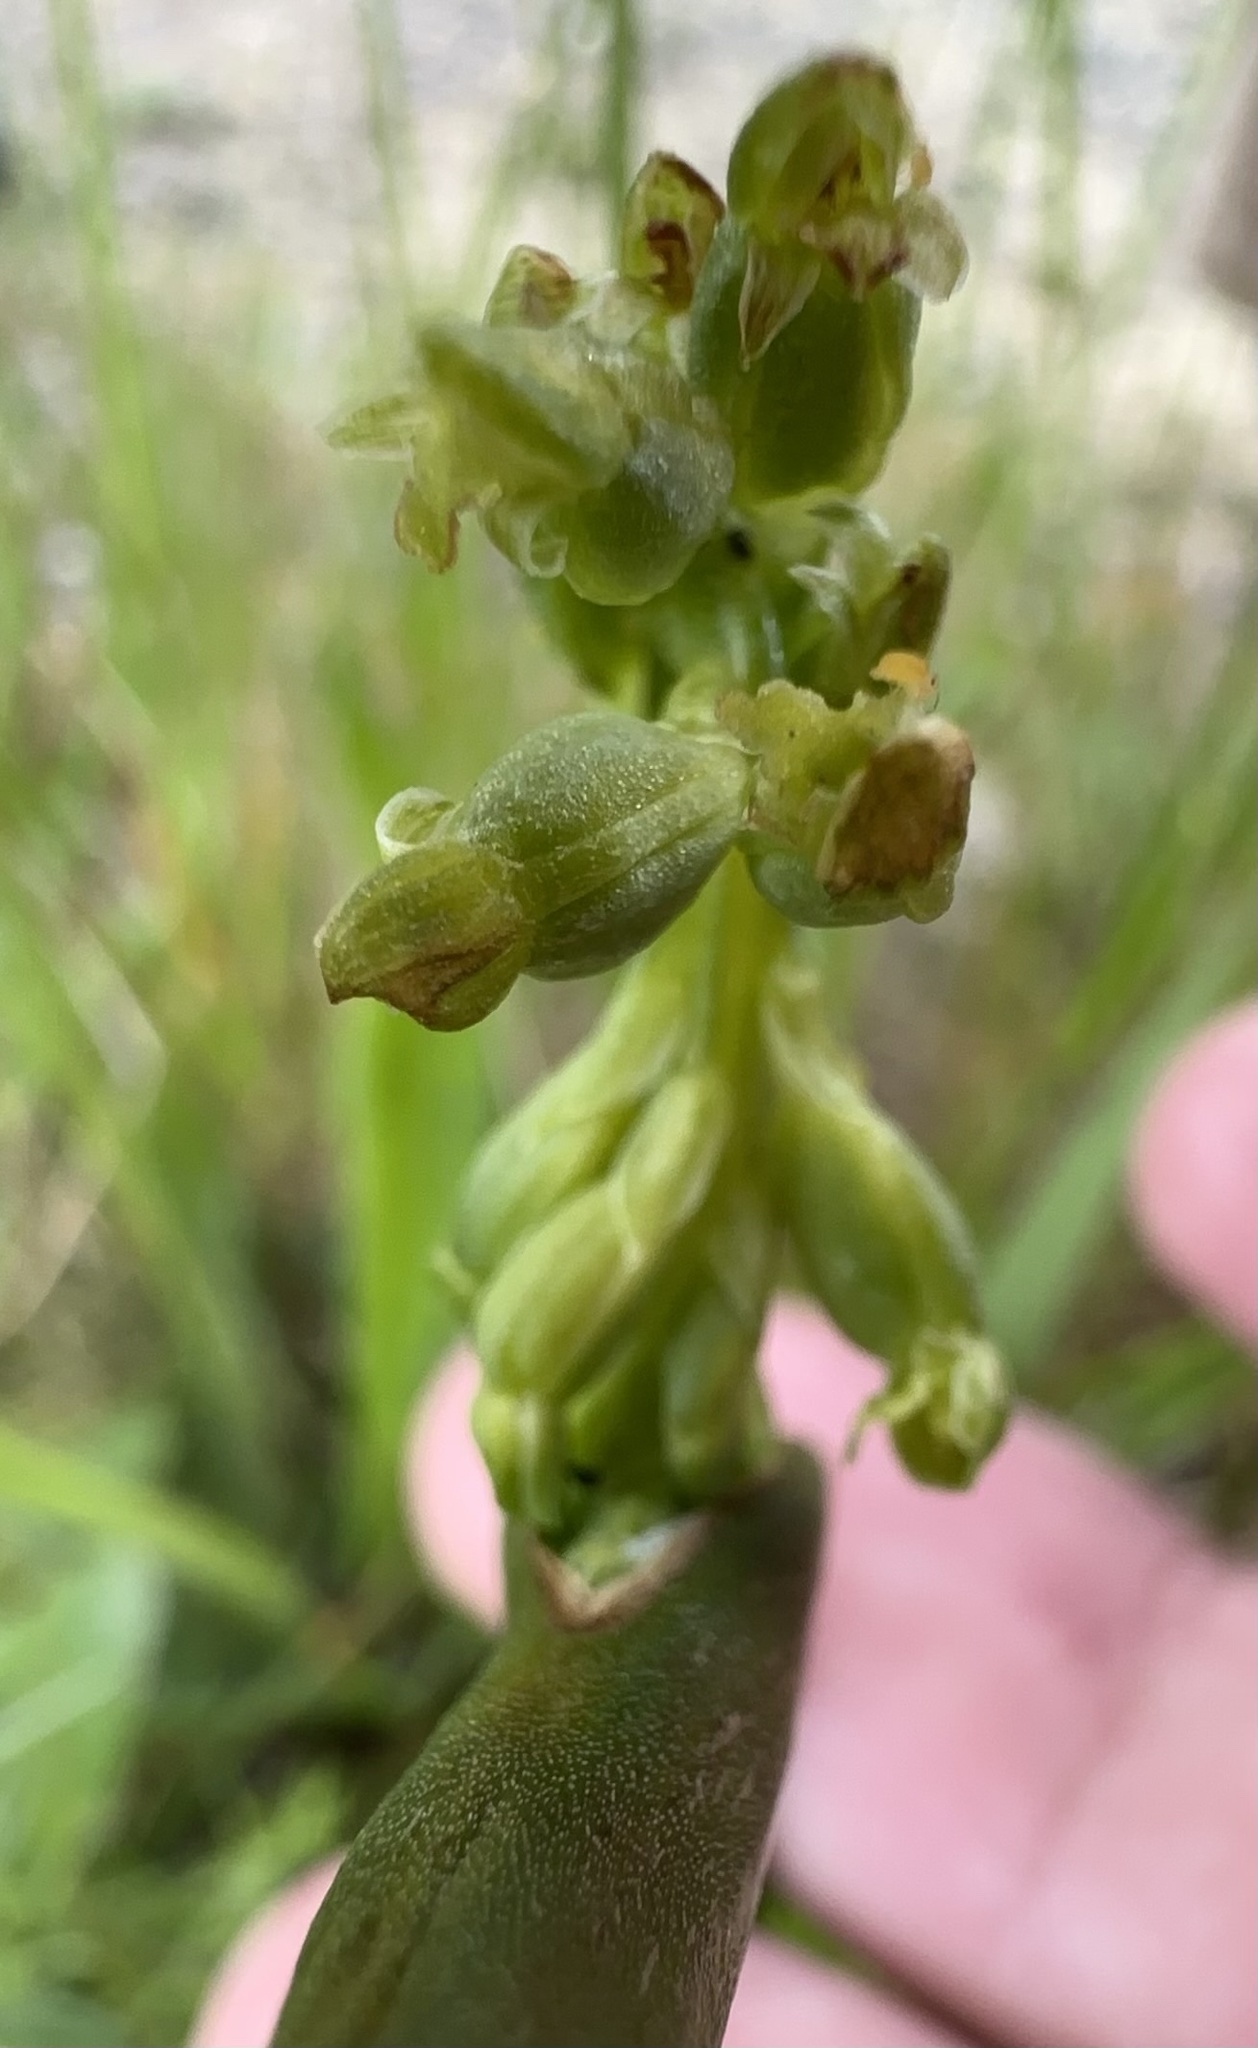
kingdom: Plantae
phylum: Tracheophyta
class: Liliopsida
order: Asparagales
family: Orchidaceae
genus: Microtis
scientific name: Microtis unifolia
